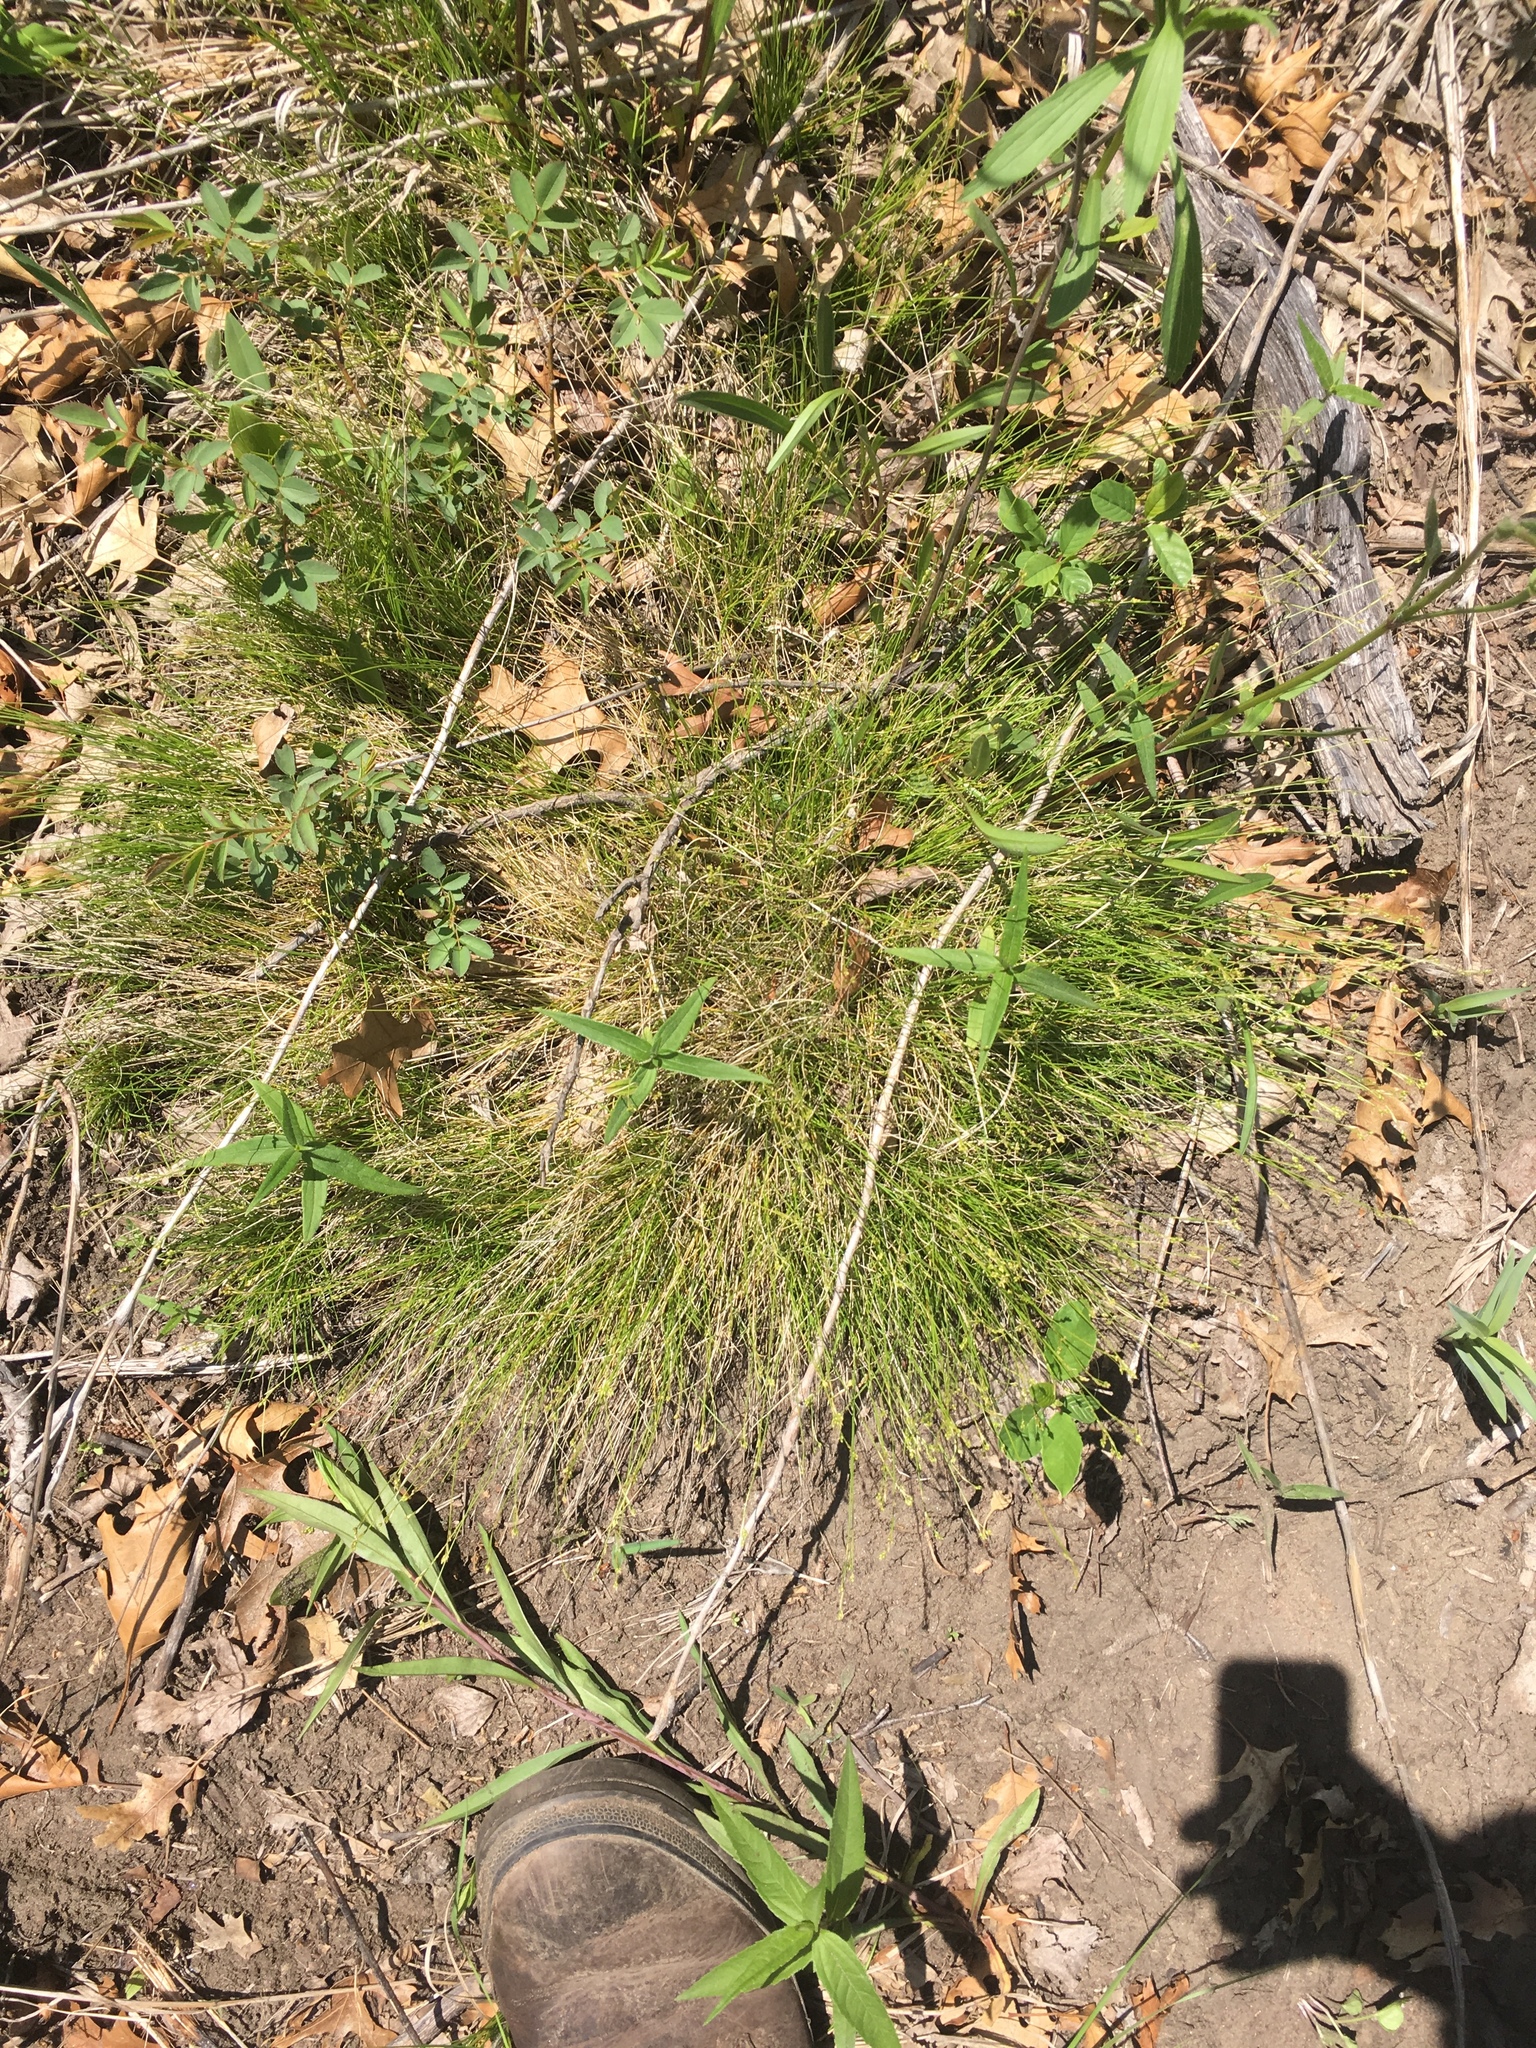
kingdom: Plantae
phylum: Tracheophyta
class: Liliopsida
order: Poales
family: Cyperaceae
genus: Carex
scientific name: Carex eburnea
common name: Bristle-leaved sedge
